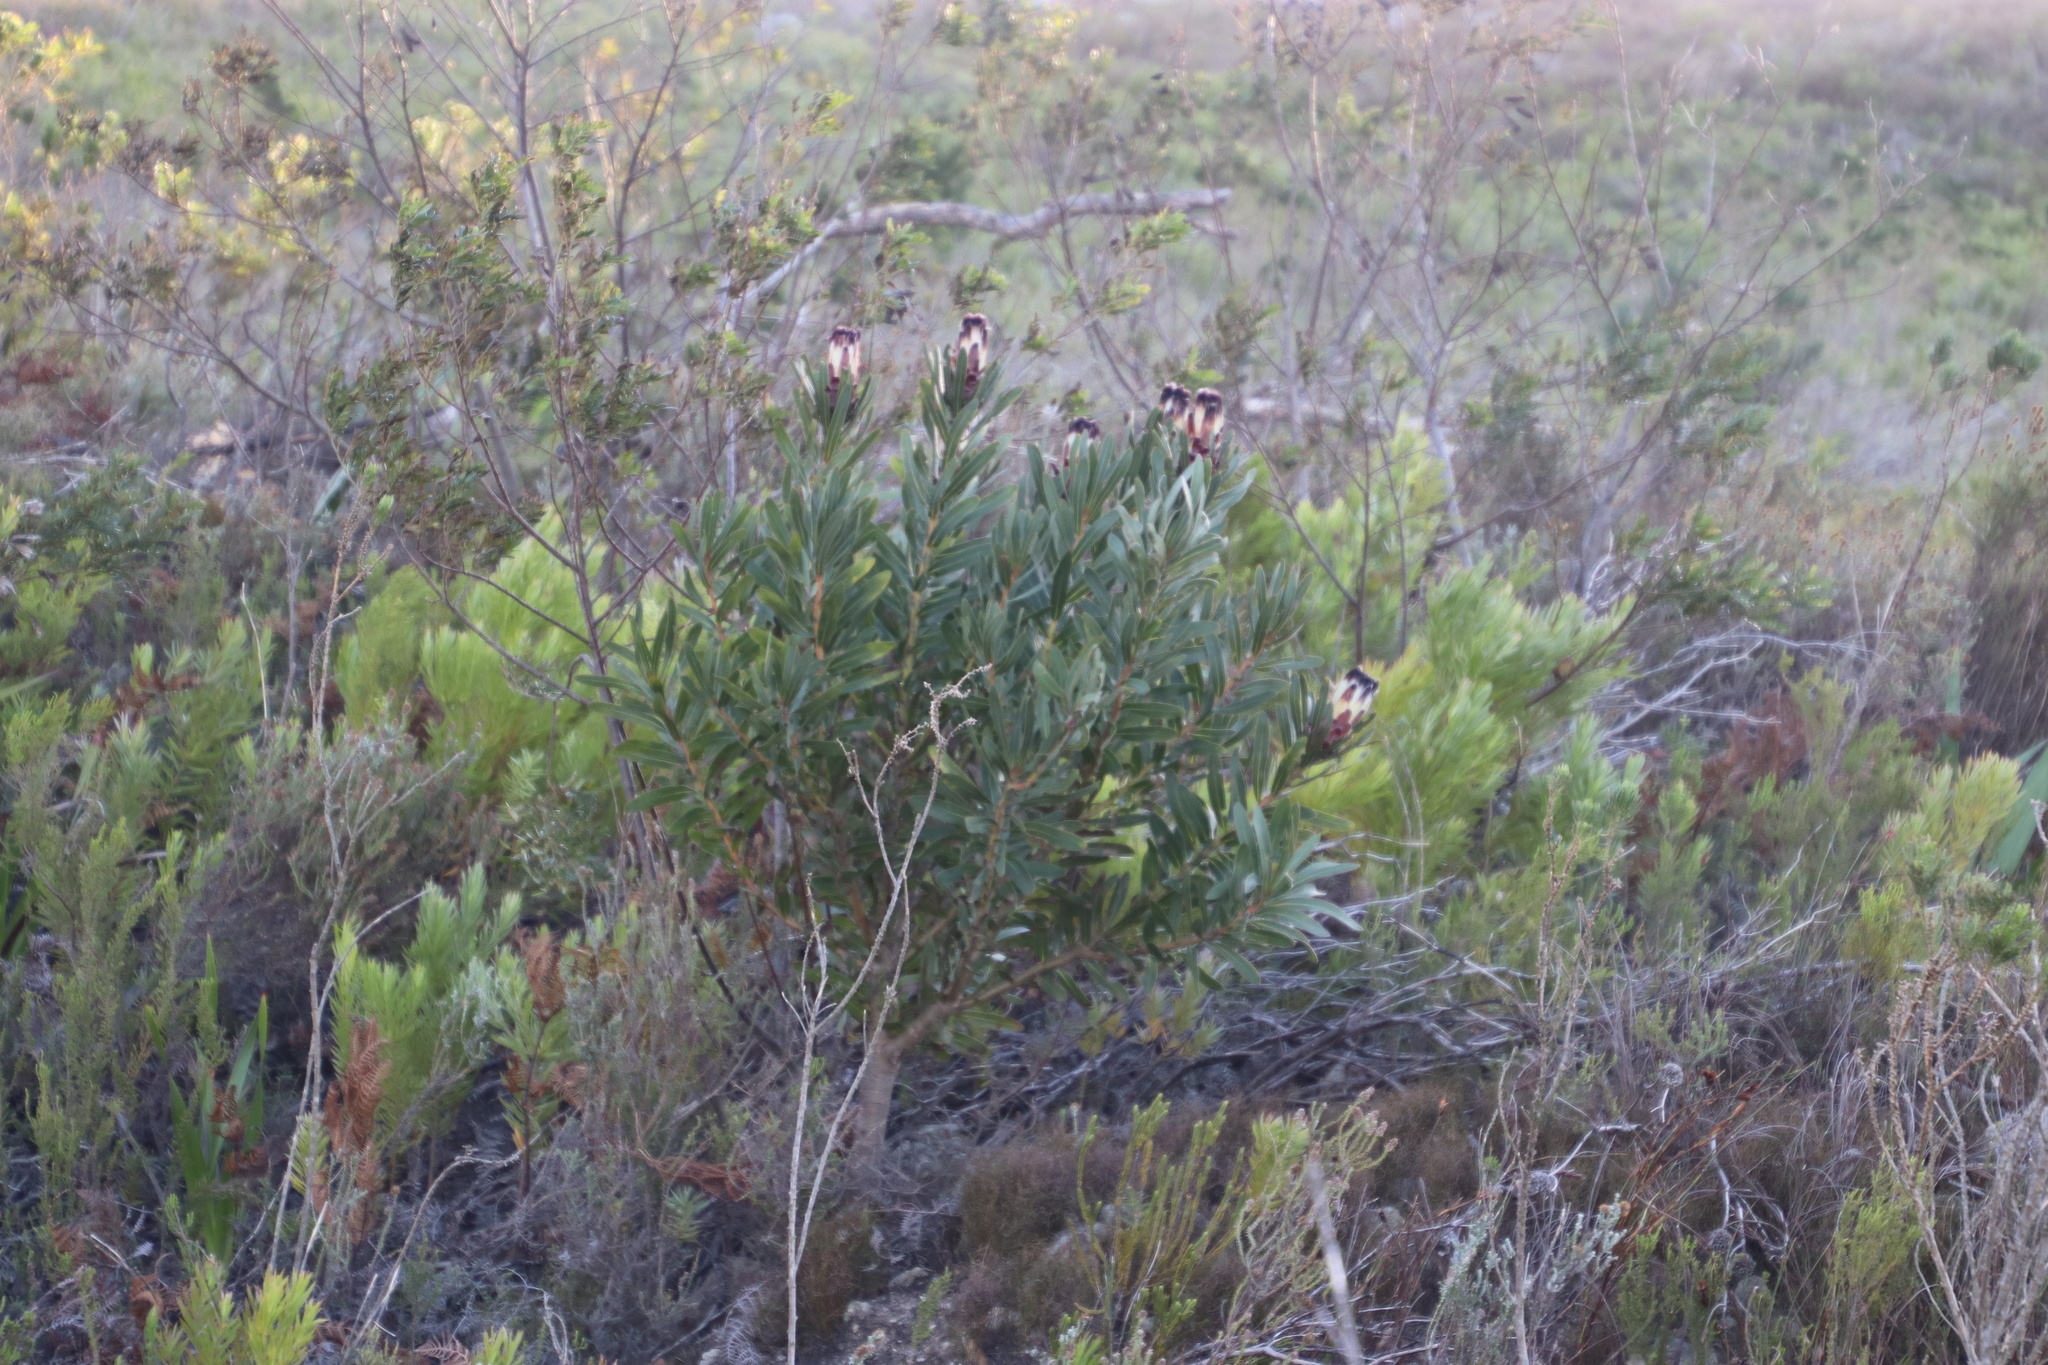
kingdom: Plantae
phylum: Tracheophyta
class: Magnoliopsida
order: Proteales
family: Proteaceae
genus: Protea
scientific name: Protea lepidocarpodendron
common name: Black-bearded protea
